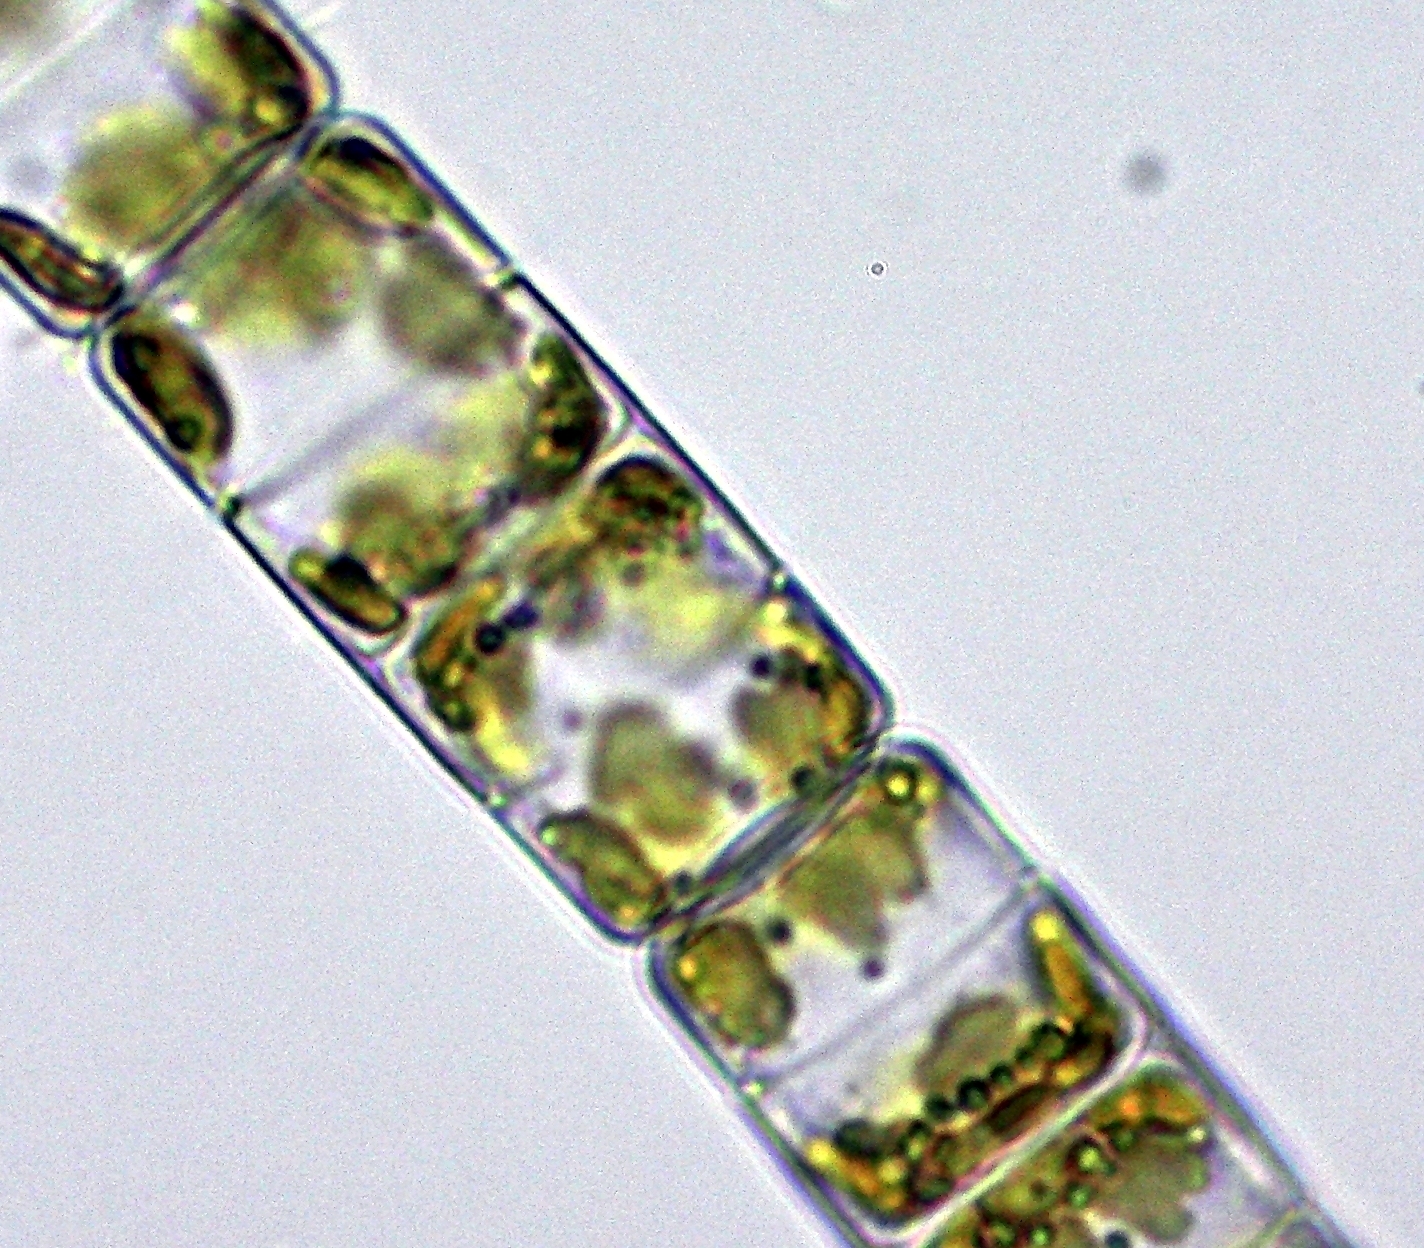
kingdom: Chromista
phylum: Ochrophyta
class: Bacillariophyceae
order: Melosirales
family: Melosiraceae
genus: Melosira
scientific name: Melosira varians
